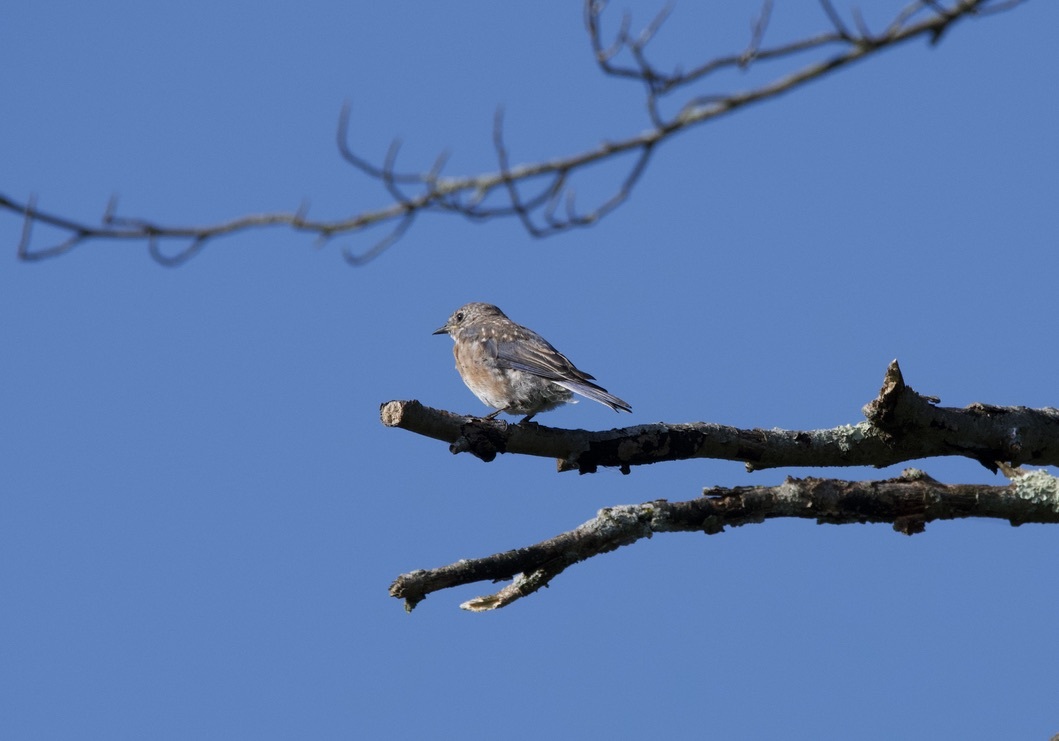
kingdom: Animalia
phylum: Chordata
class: Aves
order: Passeriformes
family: Turdidae
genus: Sialia
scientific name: Sialia sialis
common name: Eastern bluebird
